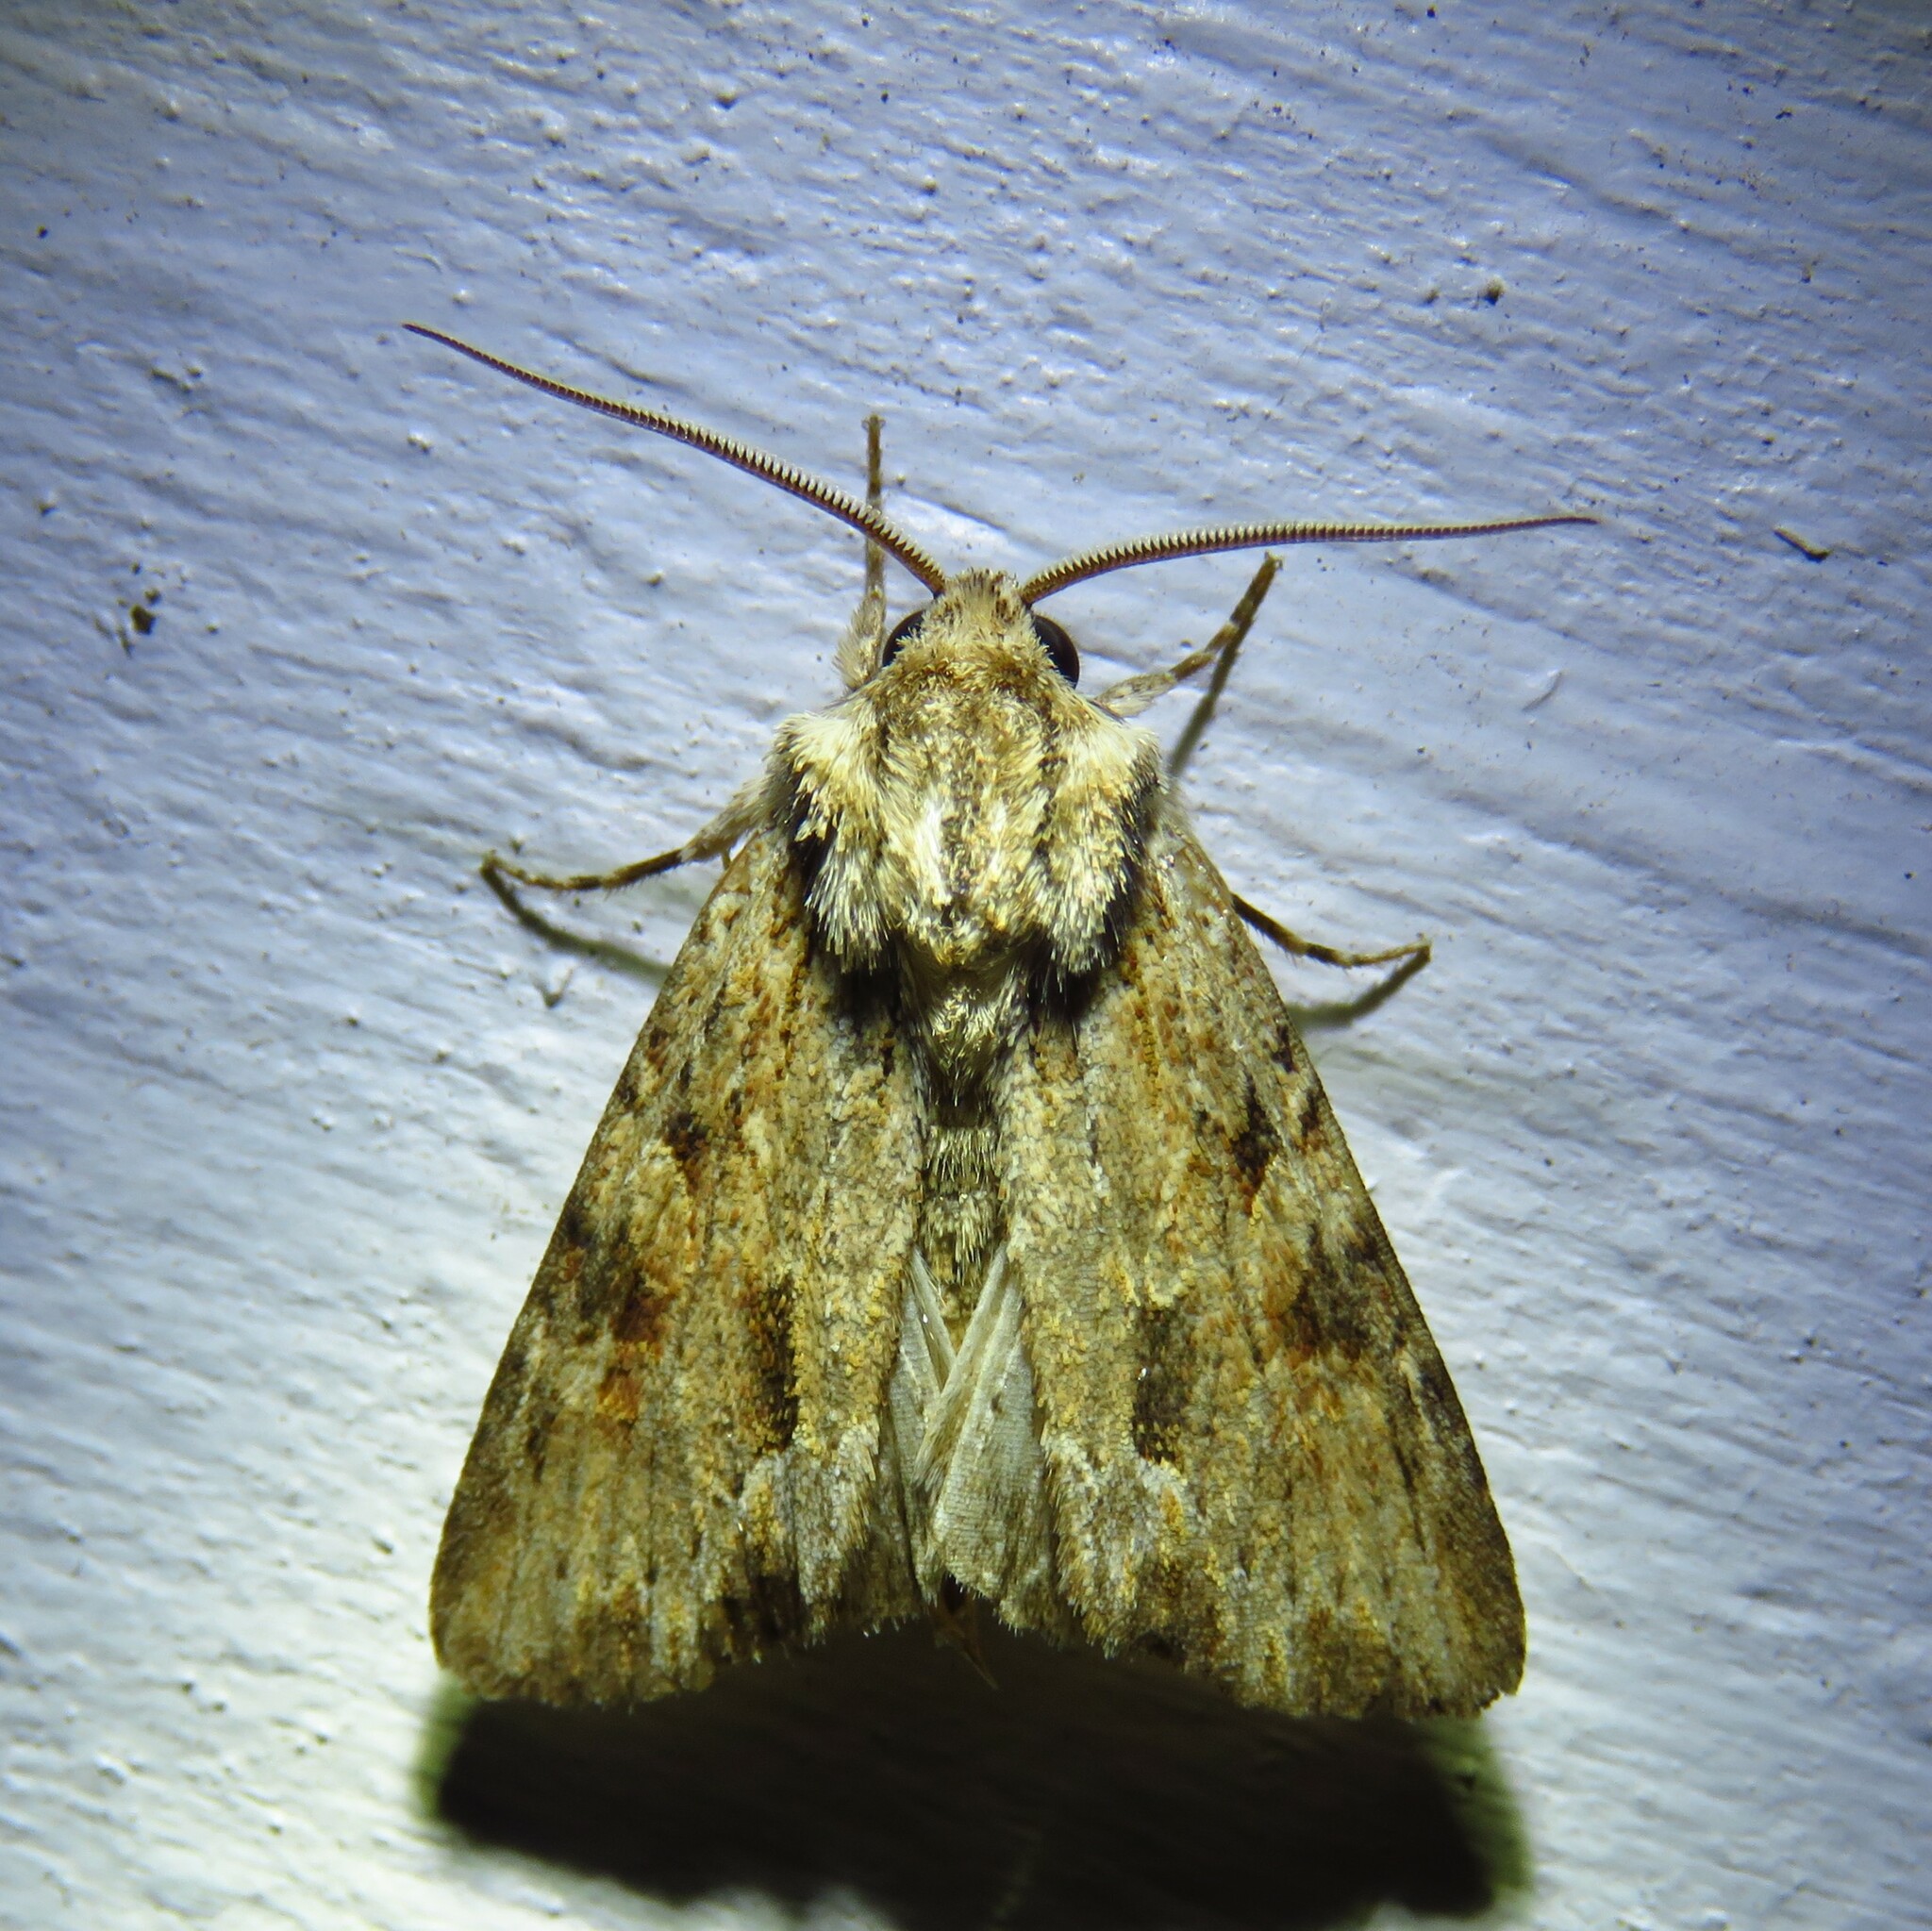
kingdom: Animalia
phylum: Arthropoda
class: Insecta
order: Lepidoptera
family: Noctuidae
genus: Achatia
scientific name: Achatia mucens
